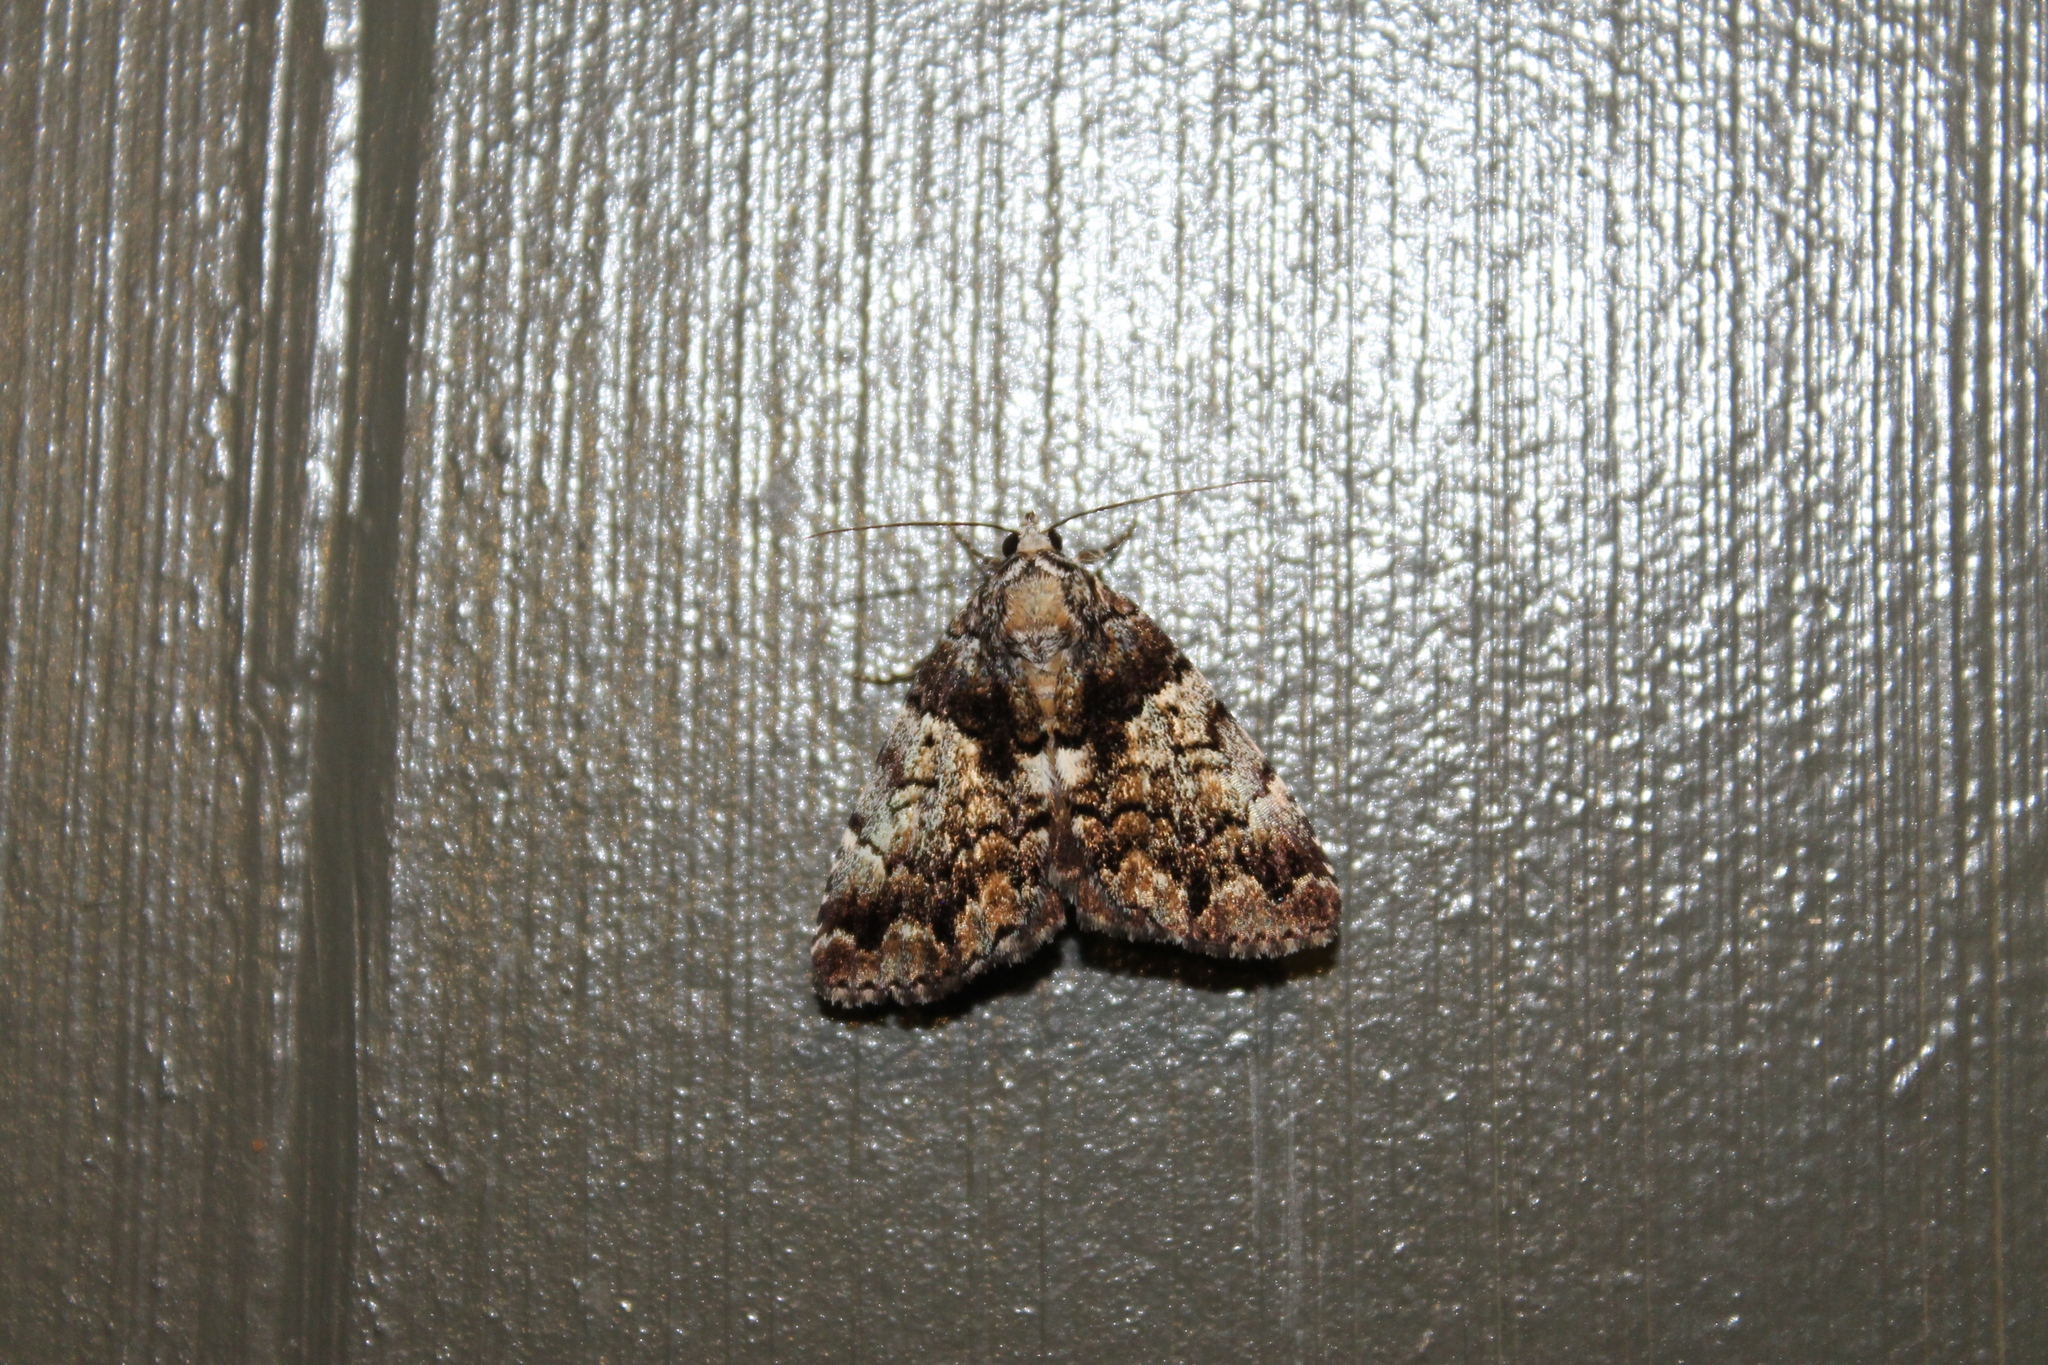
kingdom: Animalia
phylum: Arthropoda
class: Insecta
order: Lepidoptera
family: Erebidae
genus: Allotria
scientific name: Allotria elonympha
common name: False underwing
